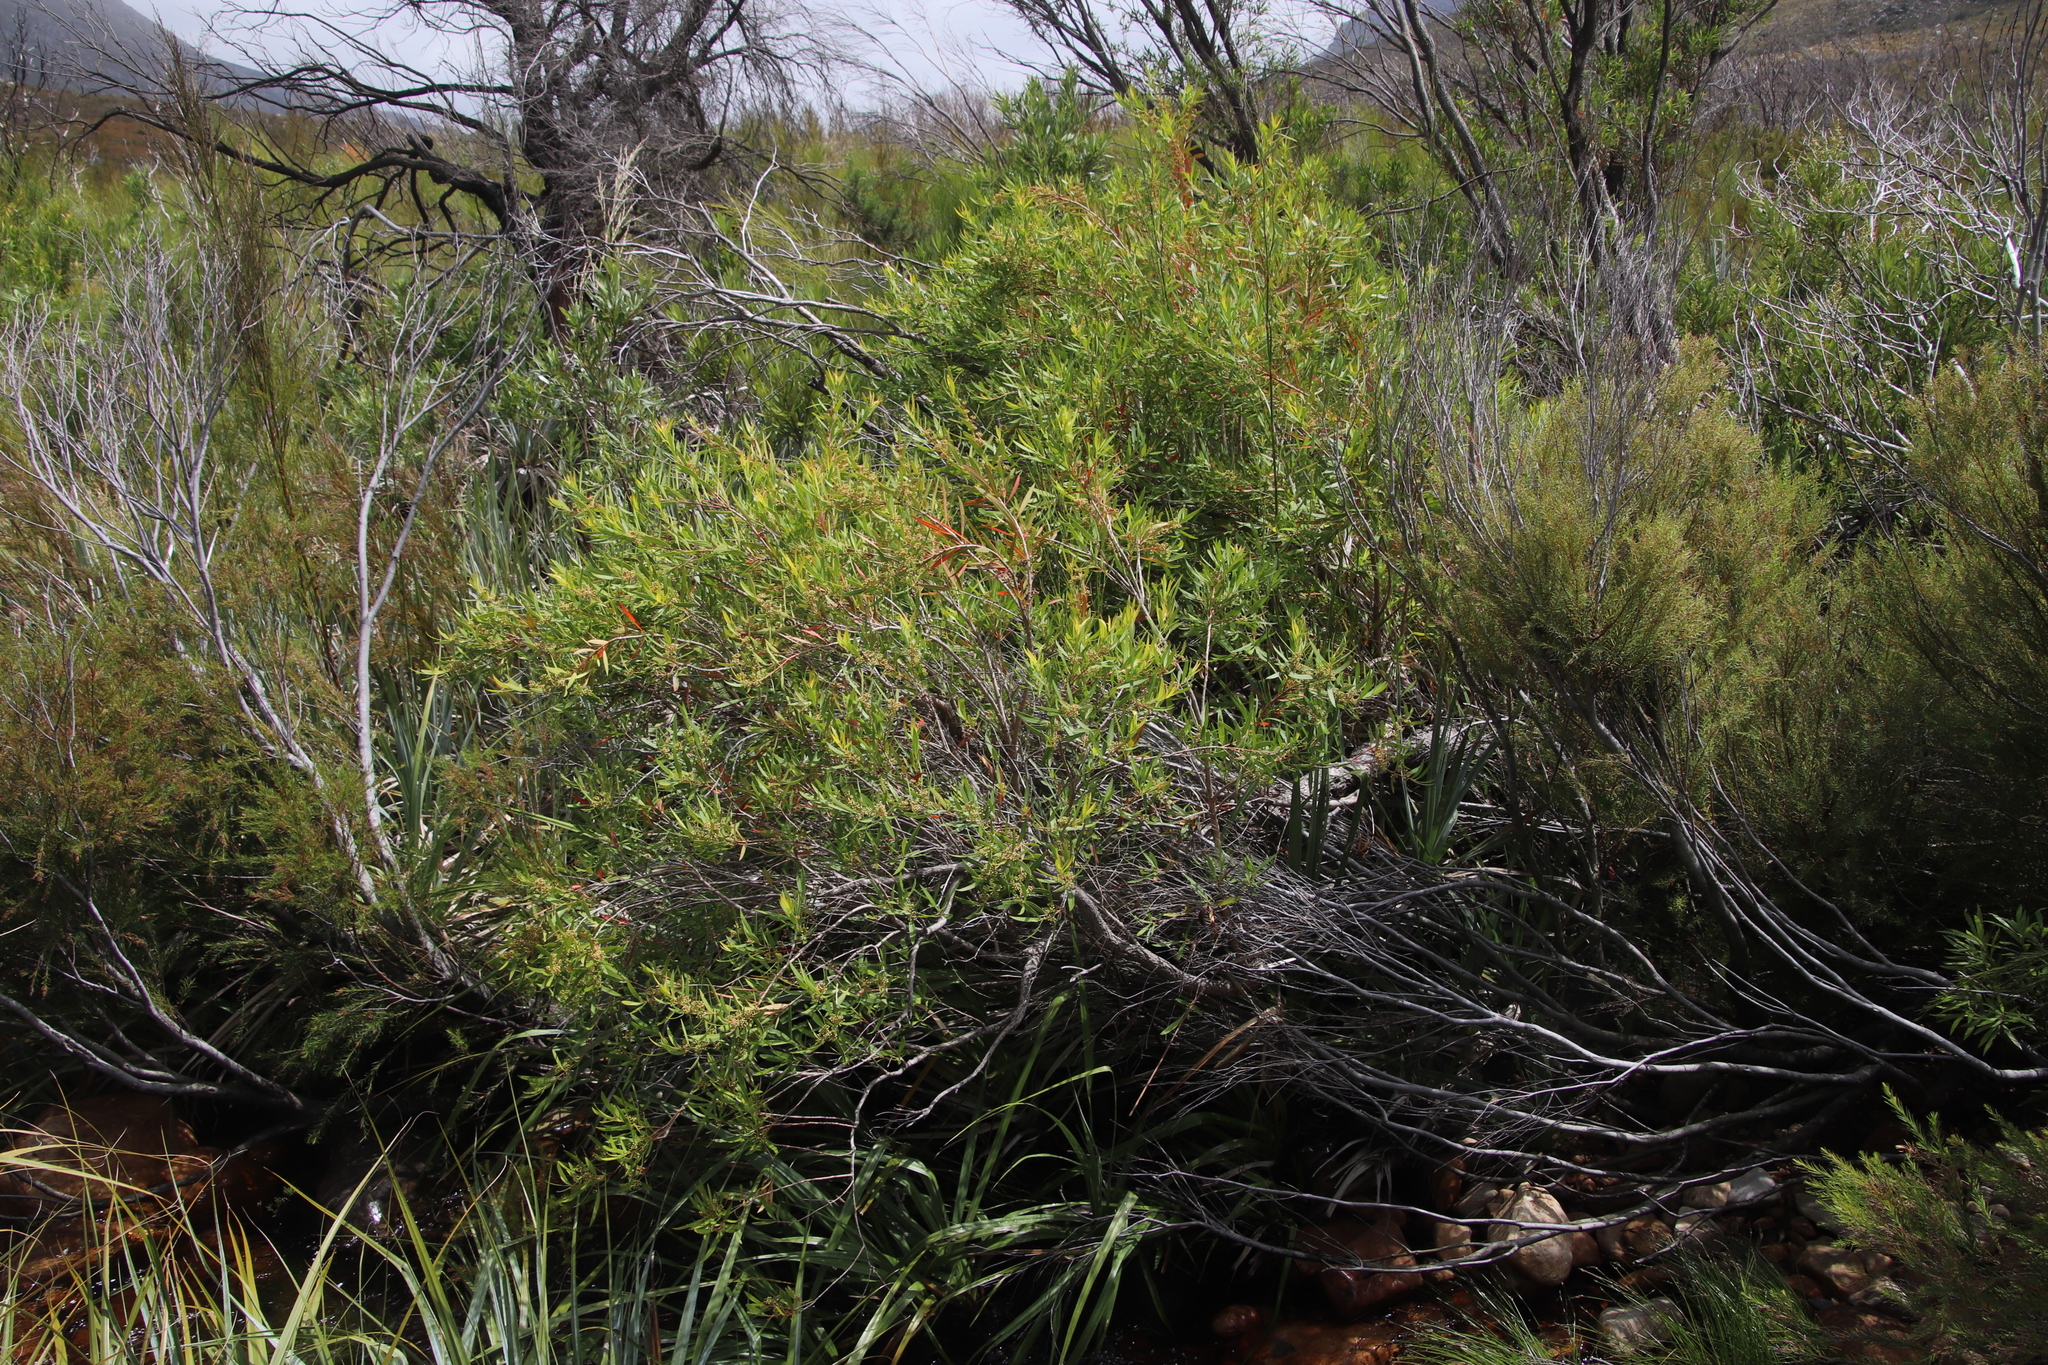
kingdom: Plantae
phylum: Tracheophyta
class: Magnoliopsida
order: Myrtales
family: Myrtaceae
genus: Callistemon
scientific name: Callistemon lanceolatus
